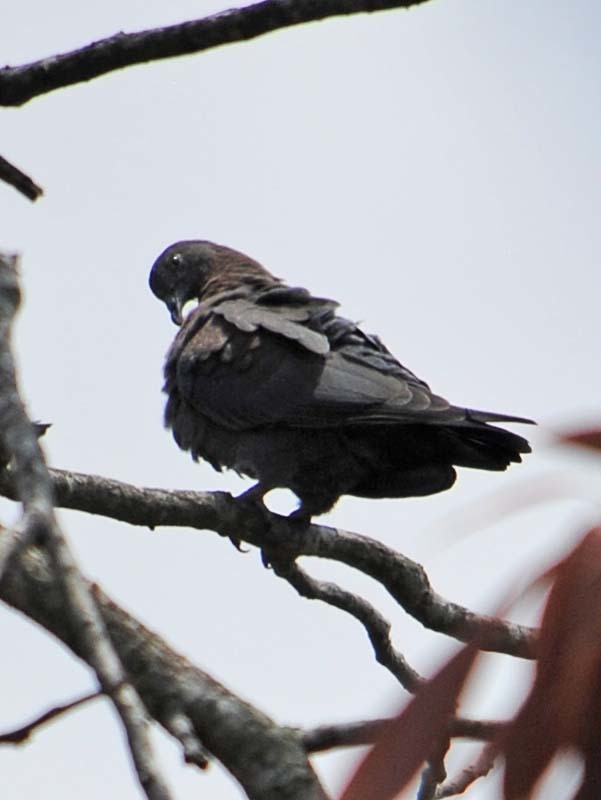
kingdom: Animalia
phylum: Chordata
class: Aves
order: Columbiformes
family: Columbidae
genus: Patagioenas
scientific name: Patagioenas flavirostris
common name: Red-billed pigeon
